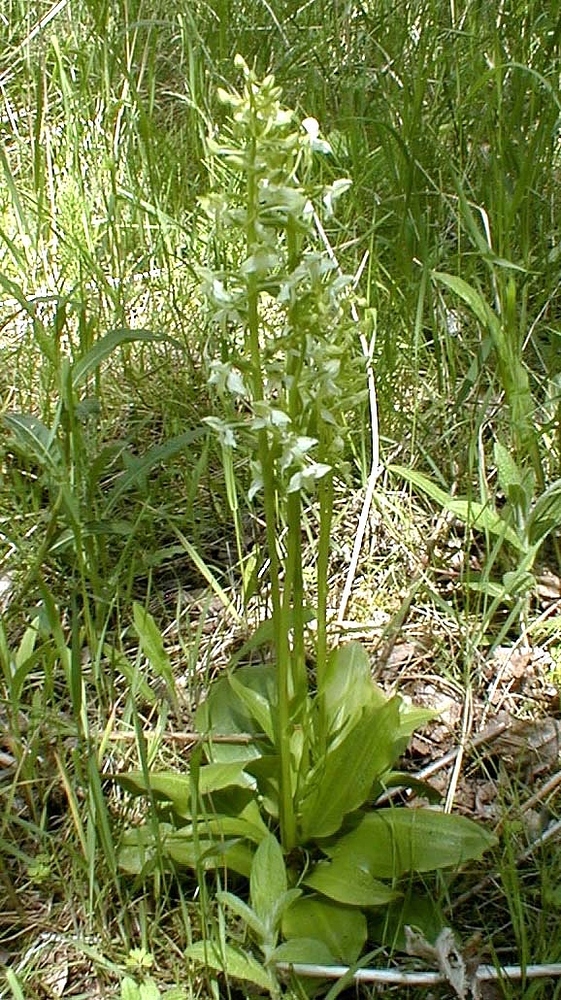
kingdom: Plantae
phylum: Tracheophyta
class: Liliopsida
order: Asparagales
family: Orchidaceae
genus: Platanthera
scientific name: Platanthera chlorantha
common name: Greater butterfly-orchid
